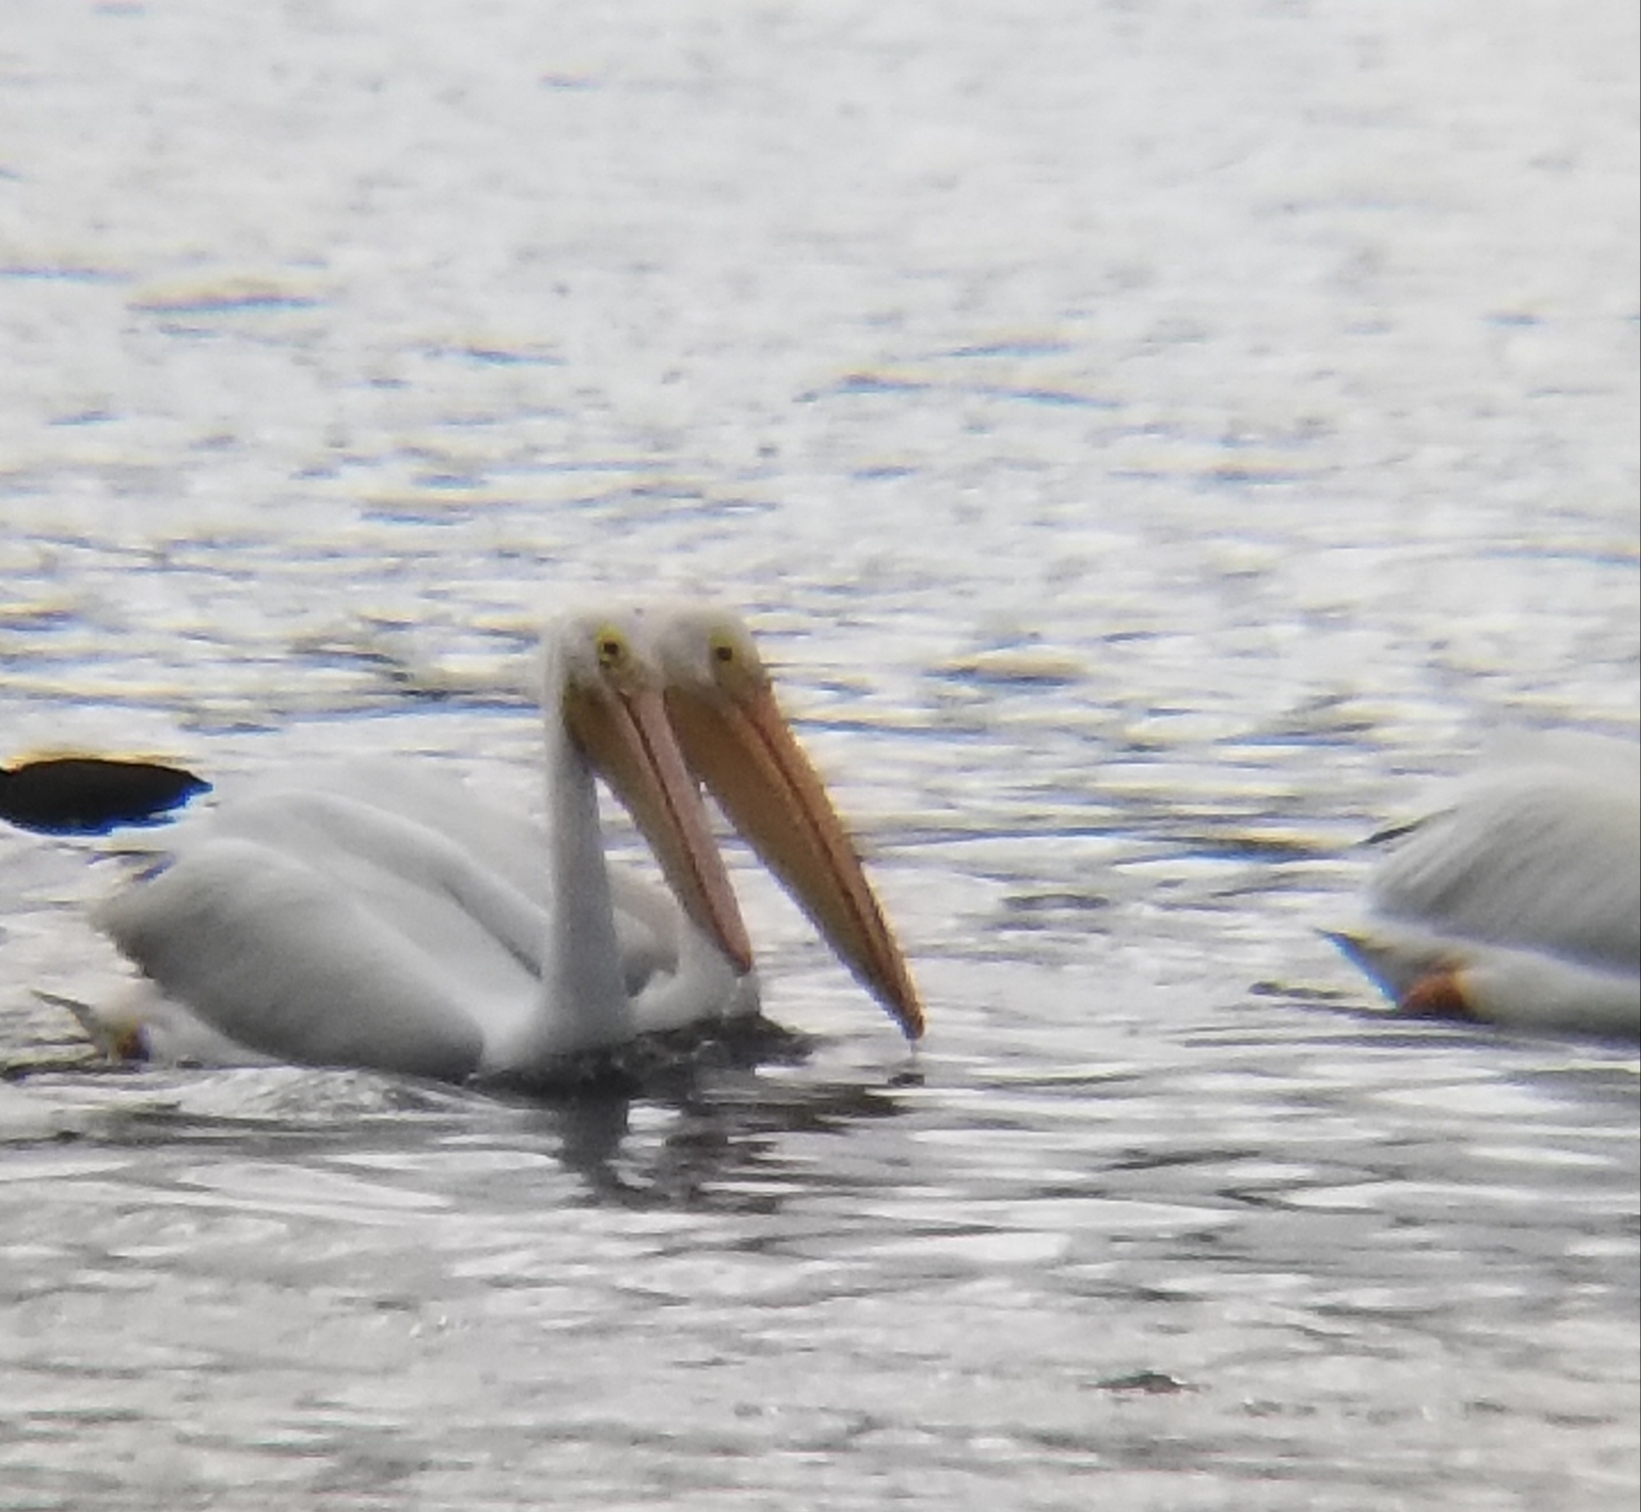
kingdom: Animalia
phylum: Chordata
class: Aves
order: Pelecaniformes
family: Pelecanidae
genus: Pelecanus
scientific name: Pelecanus erythrorhynchos
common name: American white pelican
